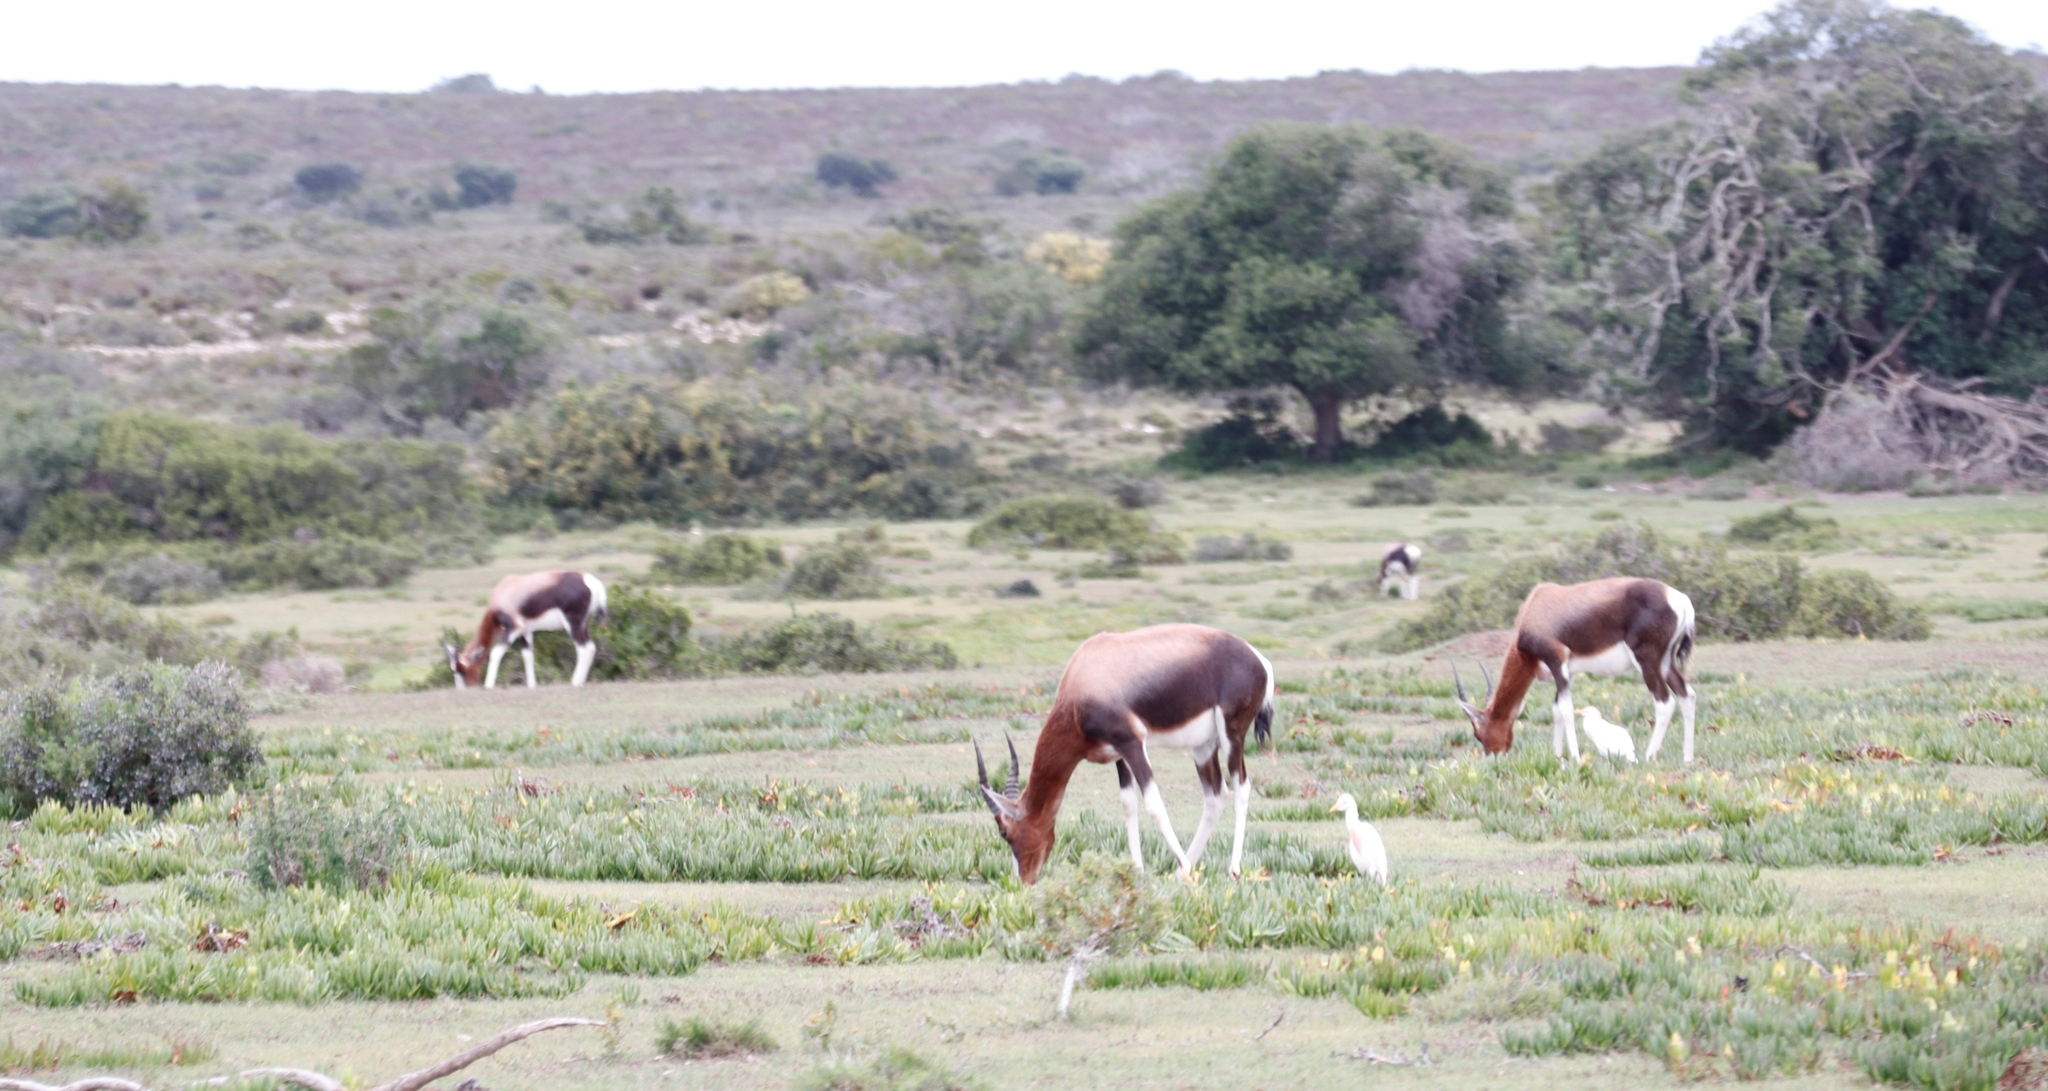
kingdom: Animalia
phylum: Chordata
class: Aves
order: Pelecaniformes
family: Ardeidae
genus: Bubulcus
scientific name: Bubulcus ibis
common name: Cattle egret
